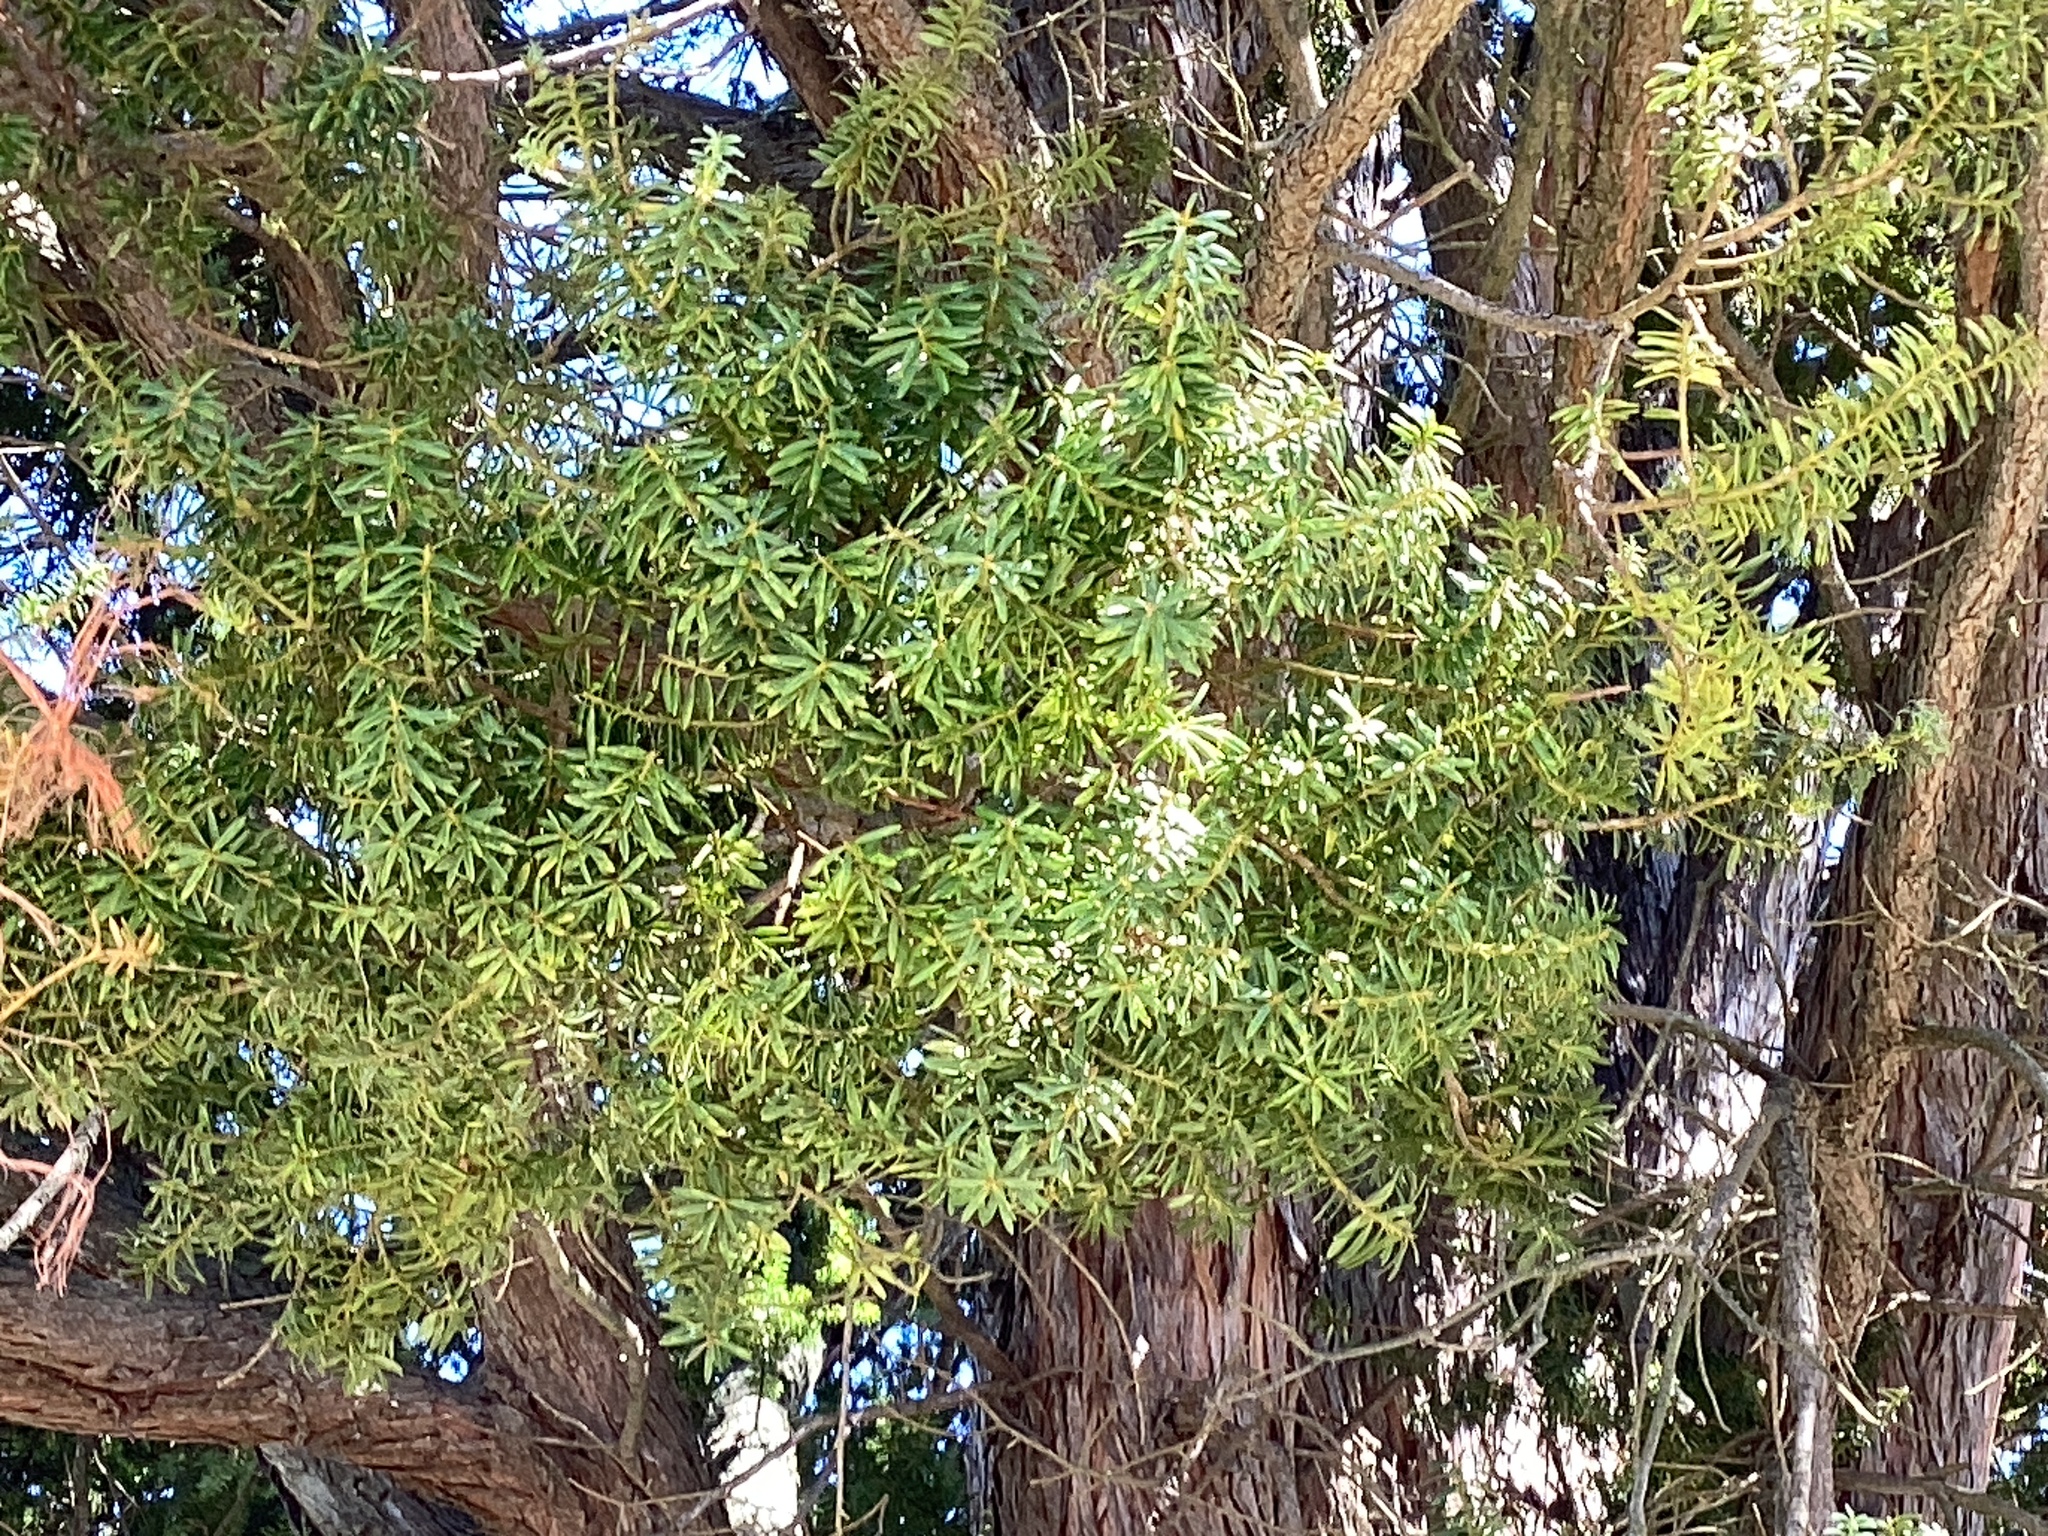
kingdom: Plantae
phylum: Tracheophyta
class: Pinopsida
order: Pinales
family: Podocarpaceae
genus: Podocarpus
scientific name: Podocarpus totara
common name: Totara
